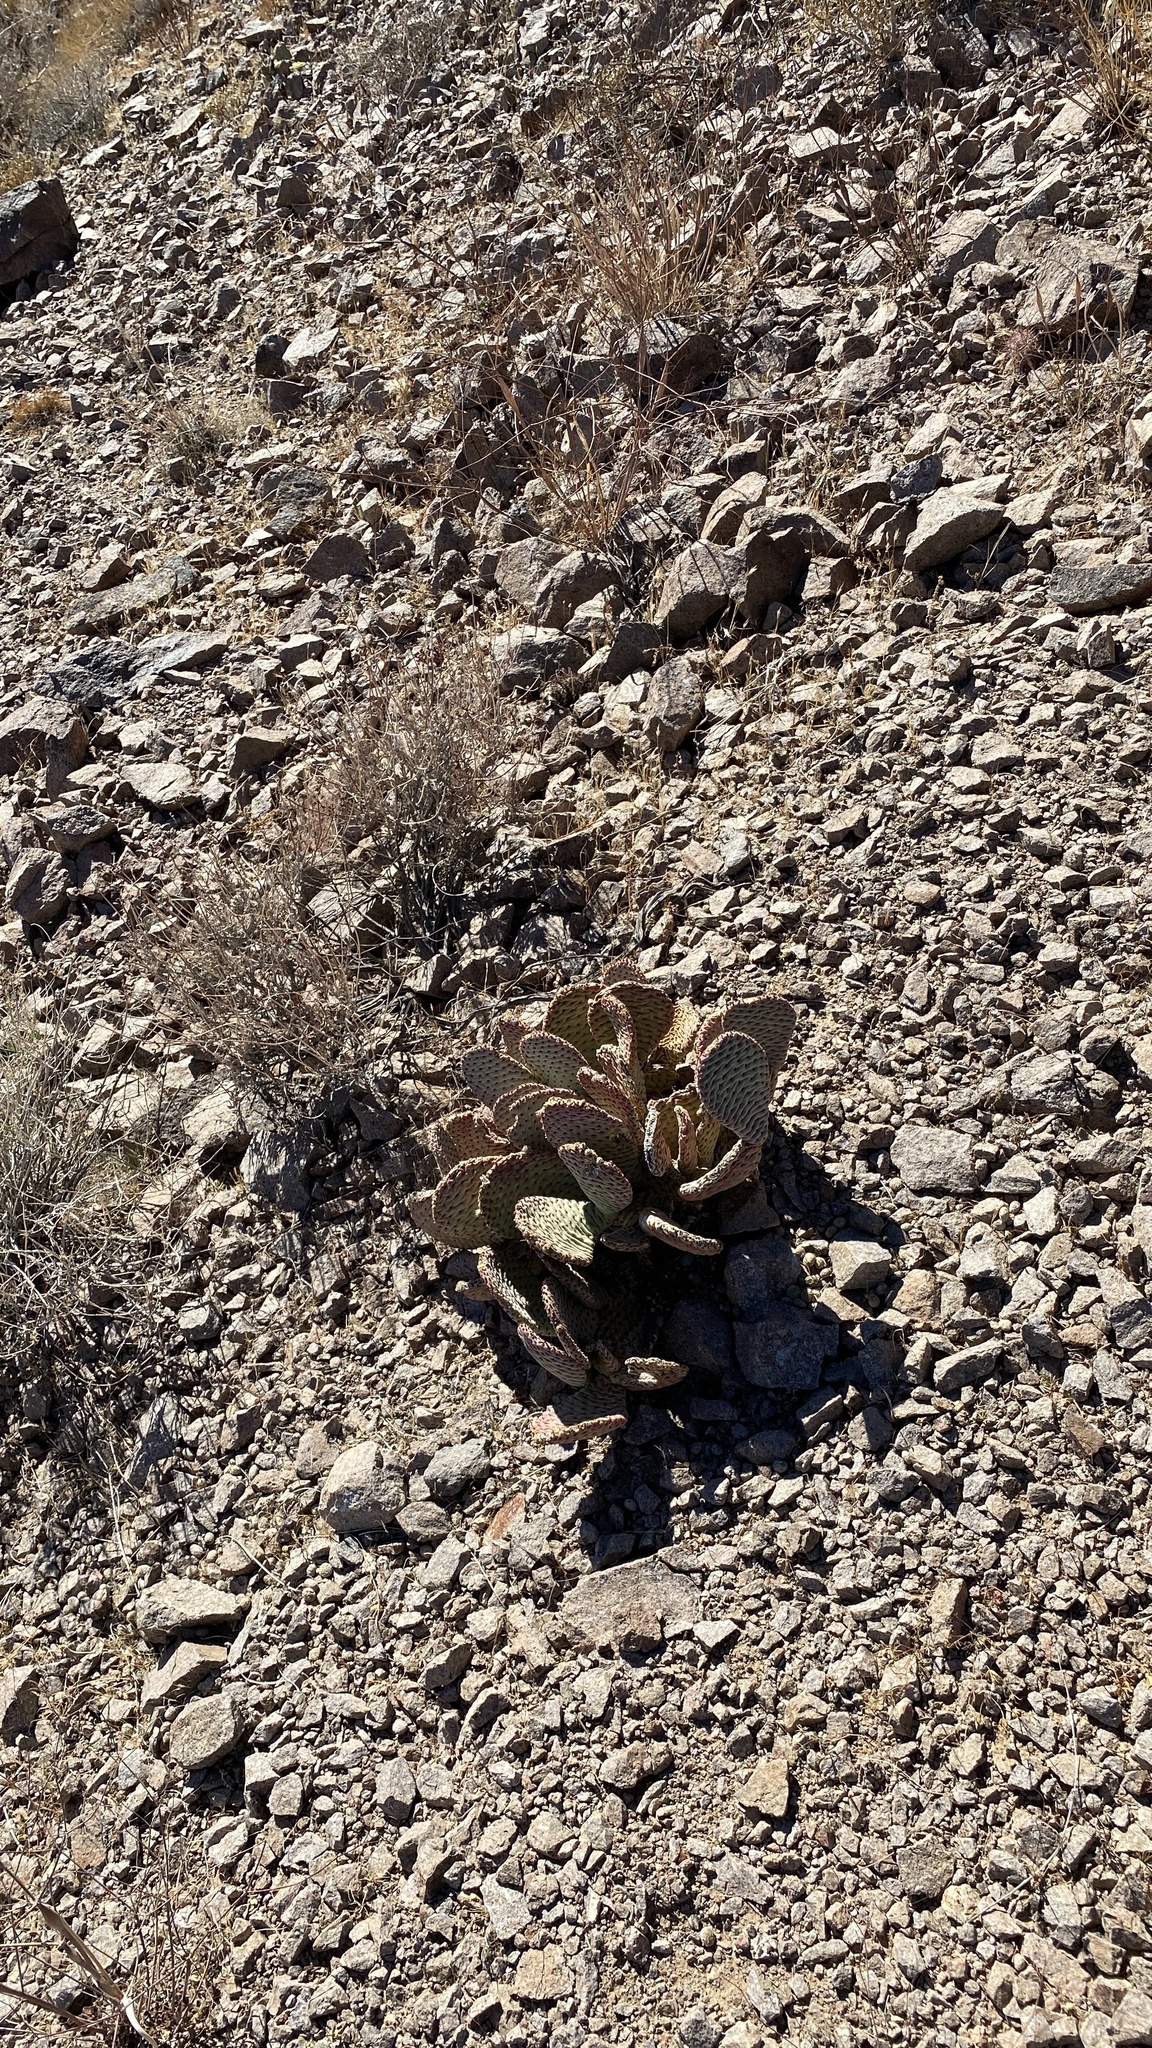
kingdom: Plantae
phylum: Tracheophyta
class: Magnoliopsida
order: Caryophyllales
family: Cactaceae
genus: Opuntia
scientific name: Opuntia basilaris
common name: Beavertail prickly-pear
